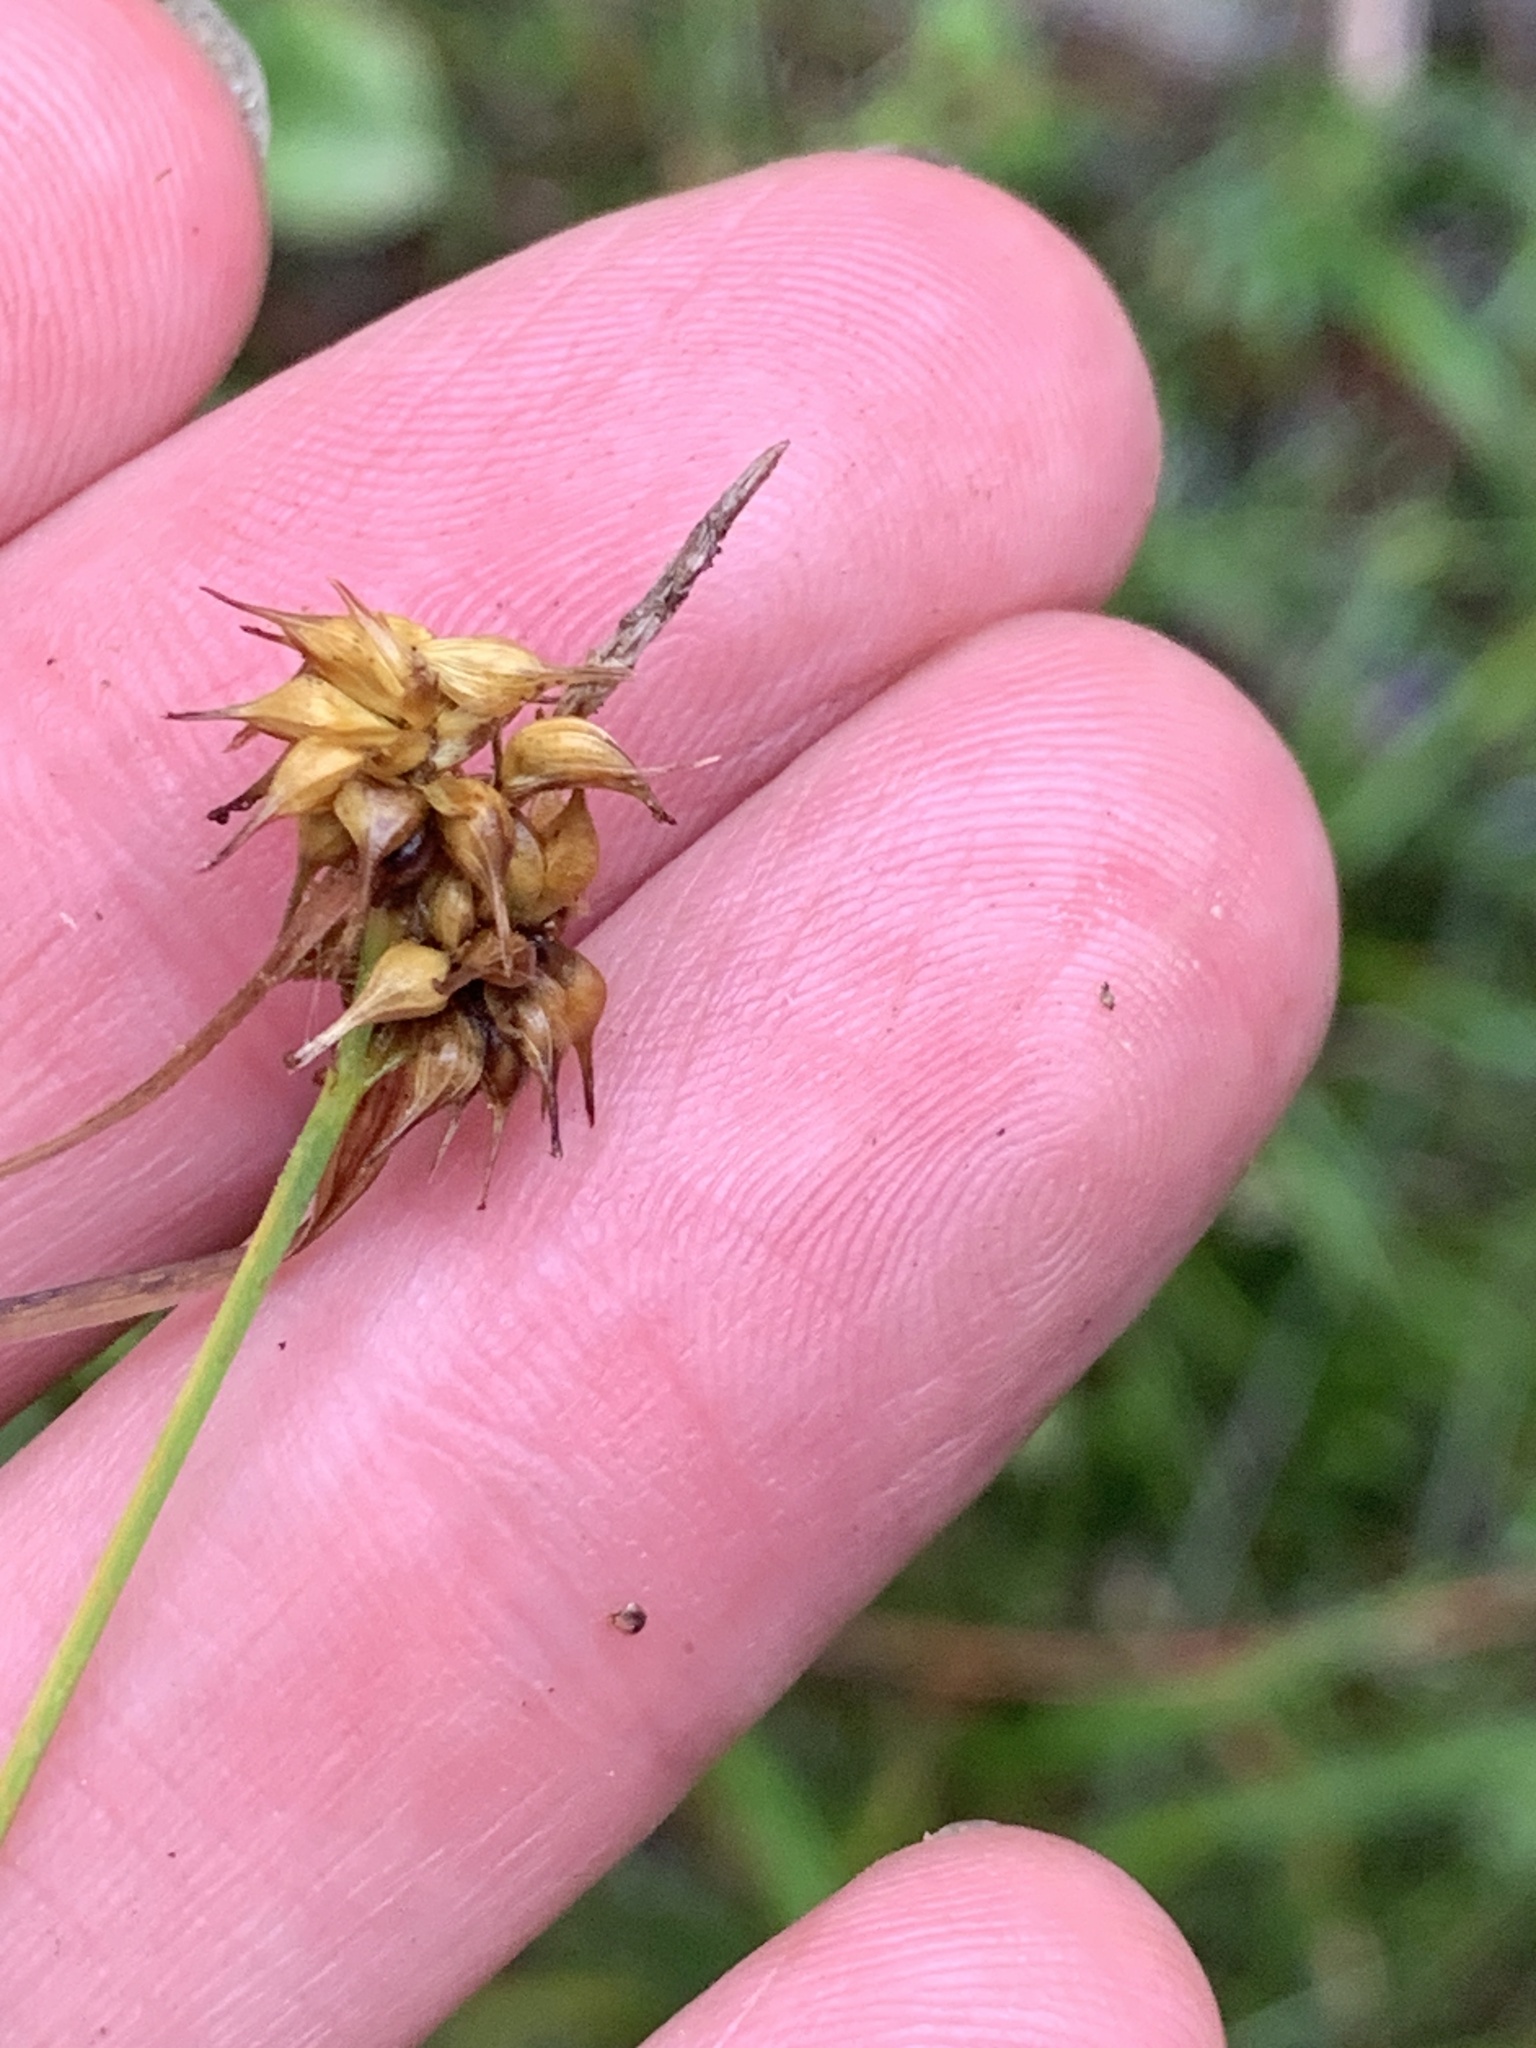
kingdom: Plantae
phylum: Tracheophyta
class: Liliopsida
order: Poales
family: Cyperaceae
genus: Carex
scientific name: Carex flava
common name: Large yellow-sedge
